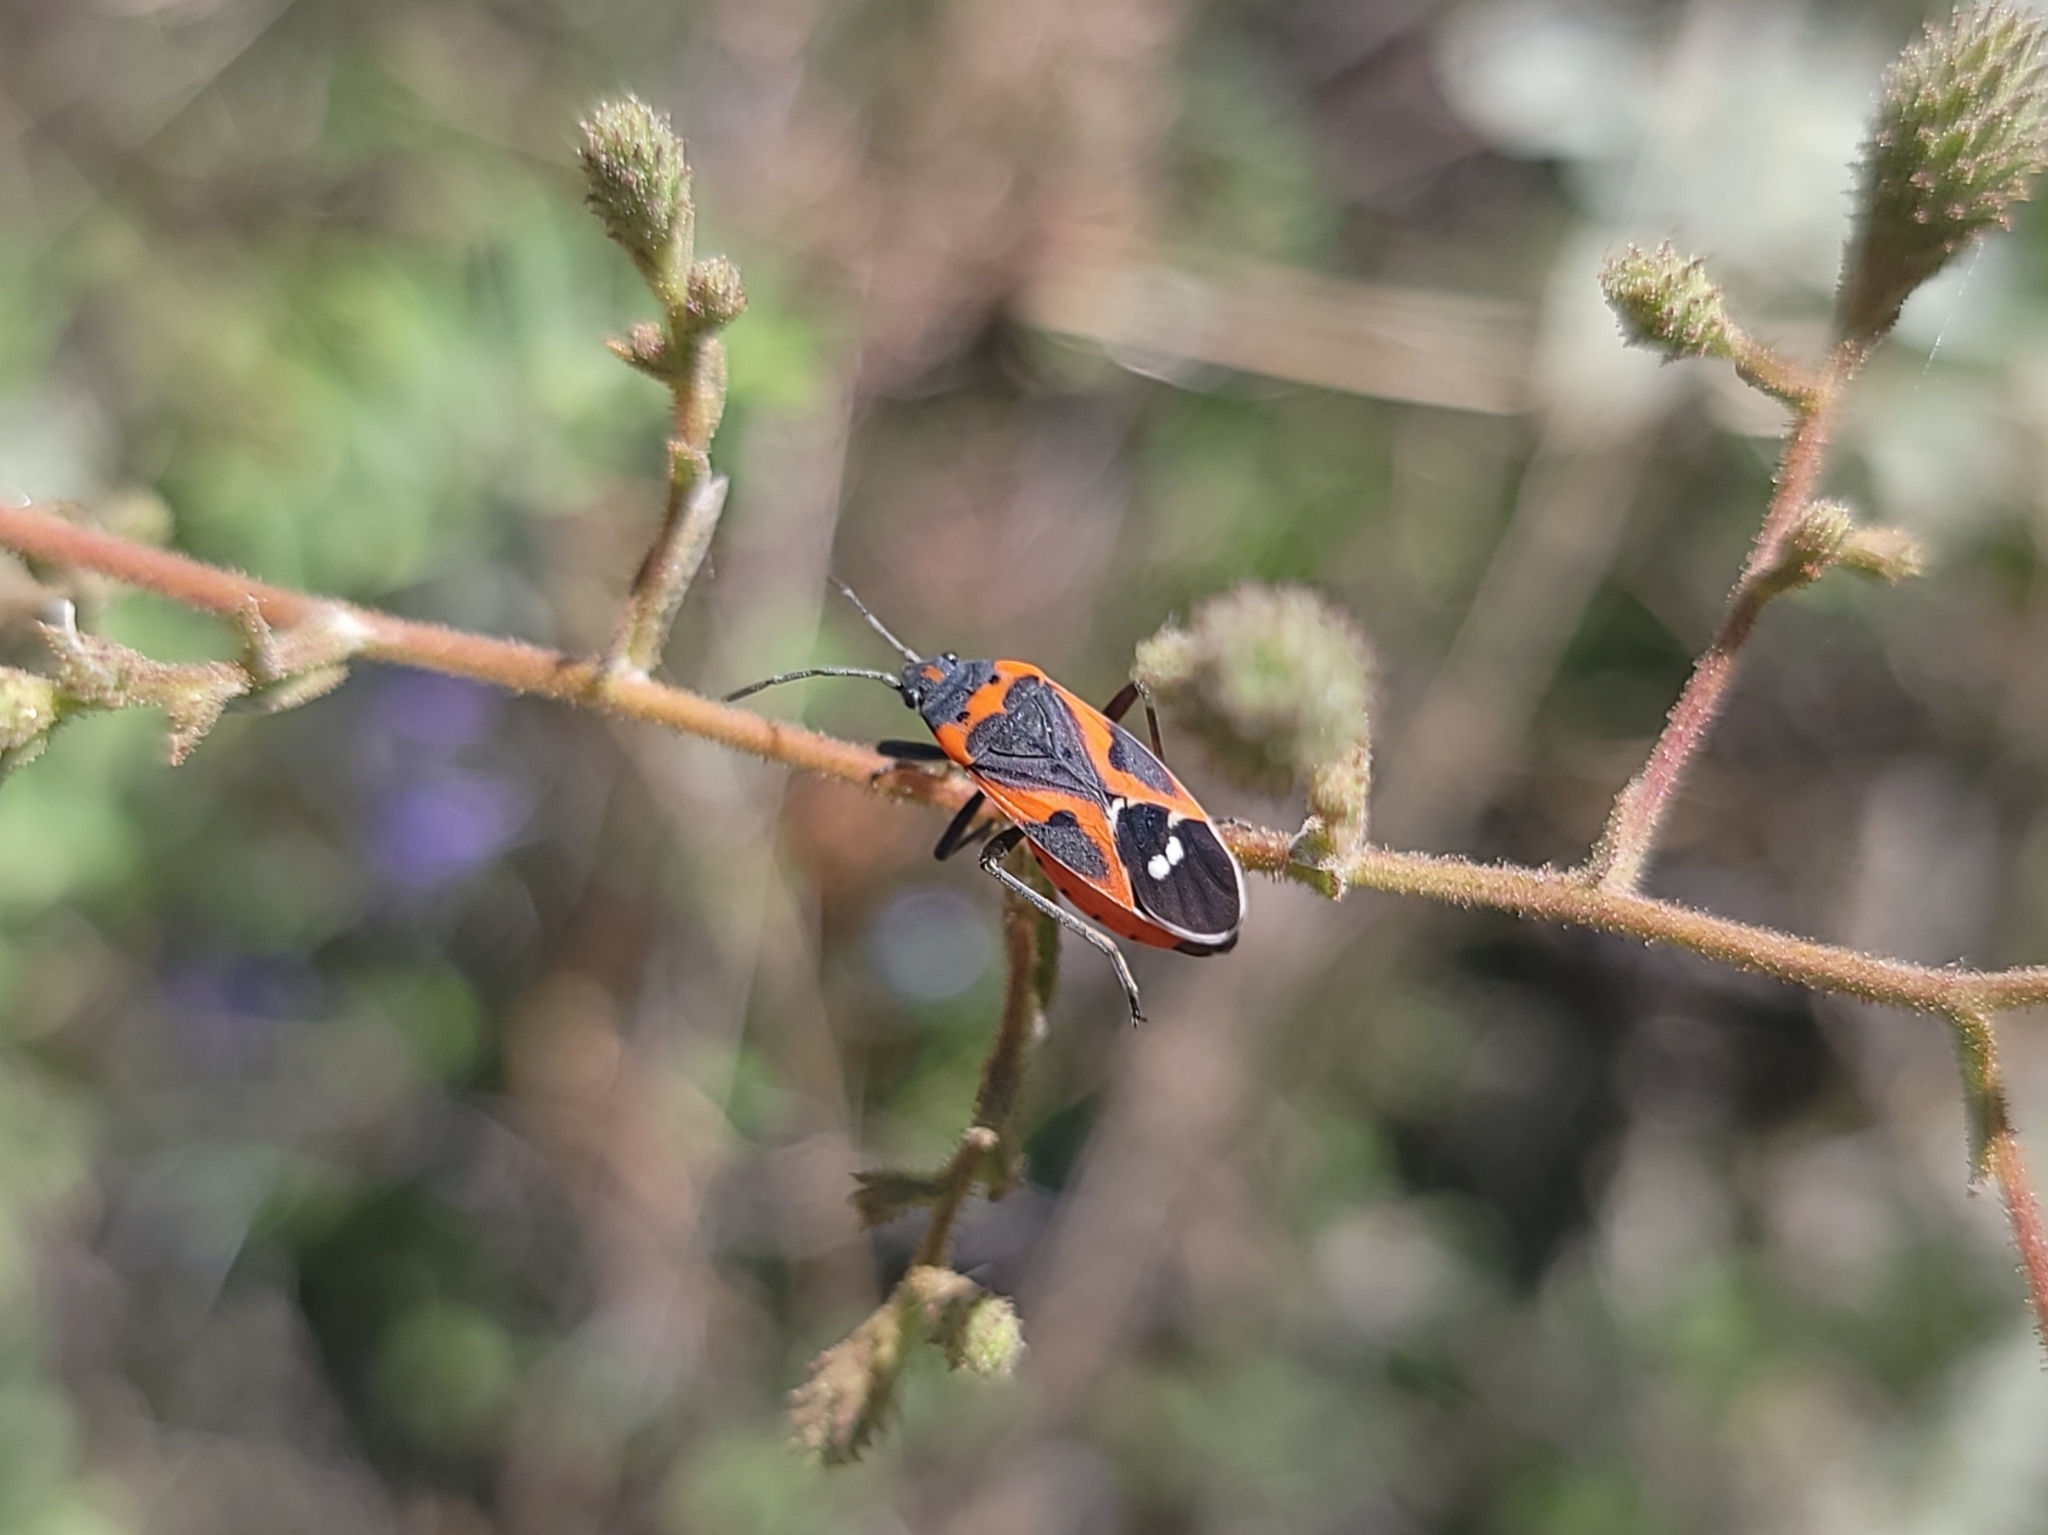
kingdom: Animalia
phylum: Arthropoda
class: Insecta
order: Hemiptera
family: Lygaeidae
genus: Lygaeus
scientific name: Lygaeus kalmii
